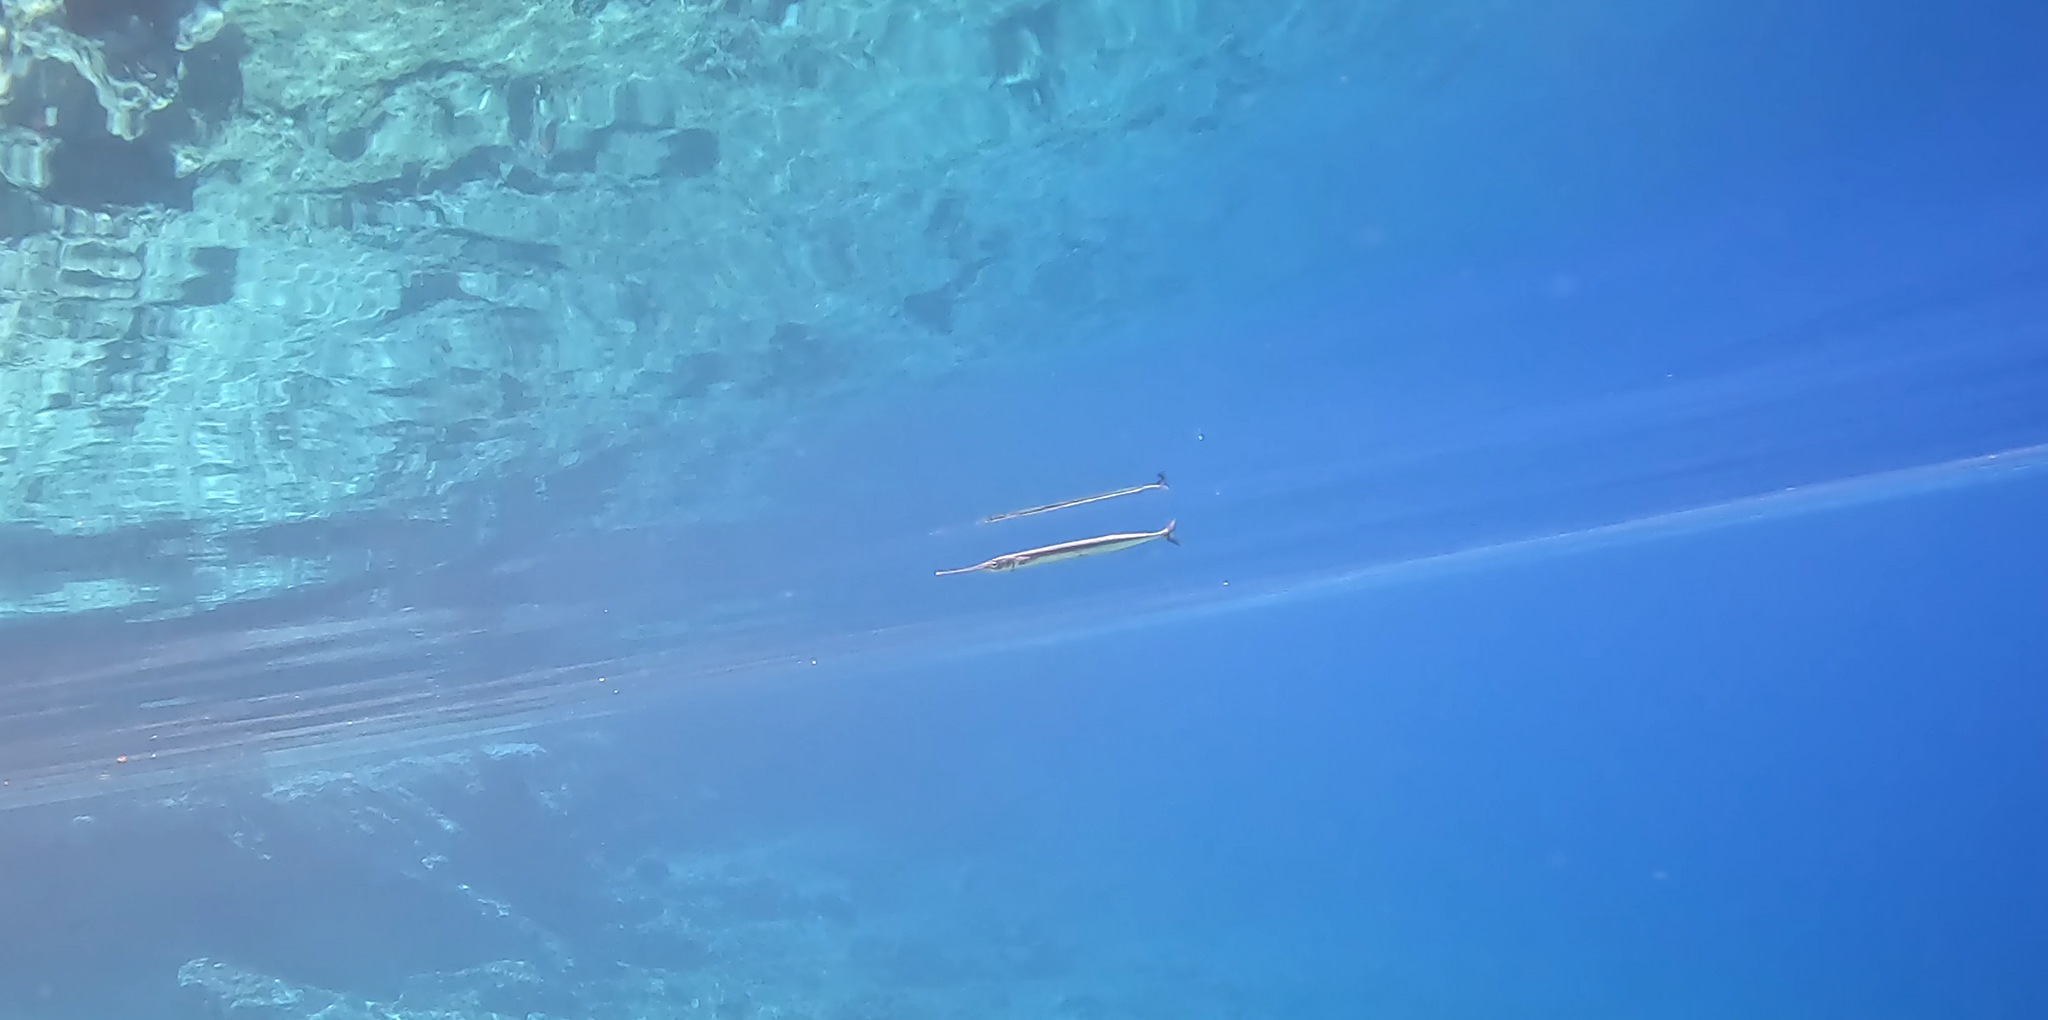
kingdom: Animalia
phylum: Chordata
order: Beloniformes
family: Belonidae
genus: Belone
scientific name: Belone
